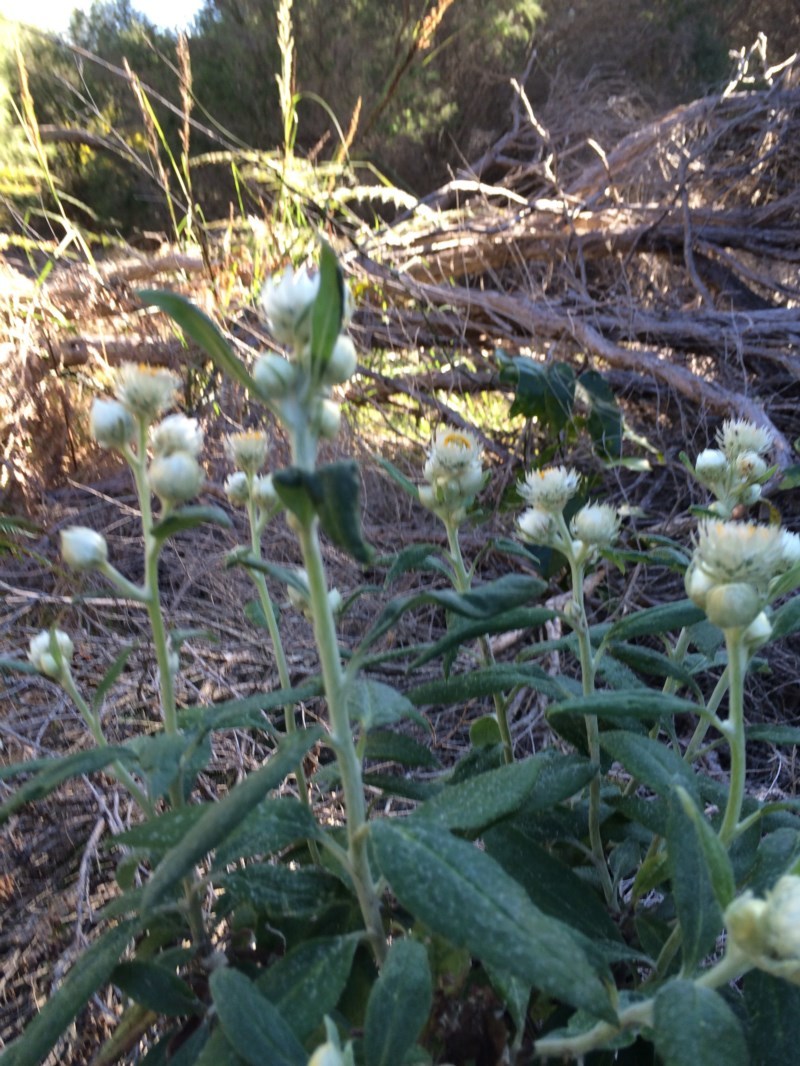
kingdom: Plantae
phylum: Tracheophyta
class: Magnoliopsida
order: Asterales
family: Asteraceae
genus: Leucozoma
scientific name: Leucozoma elatum
